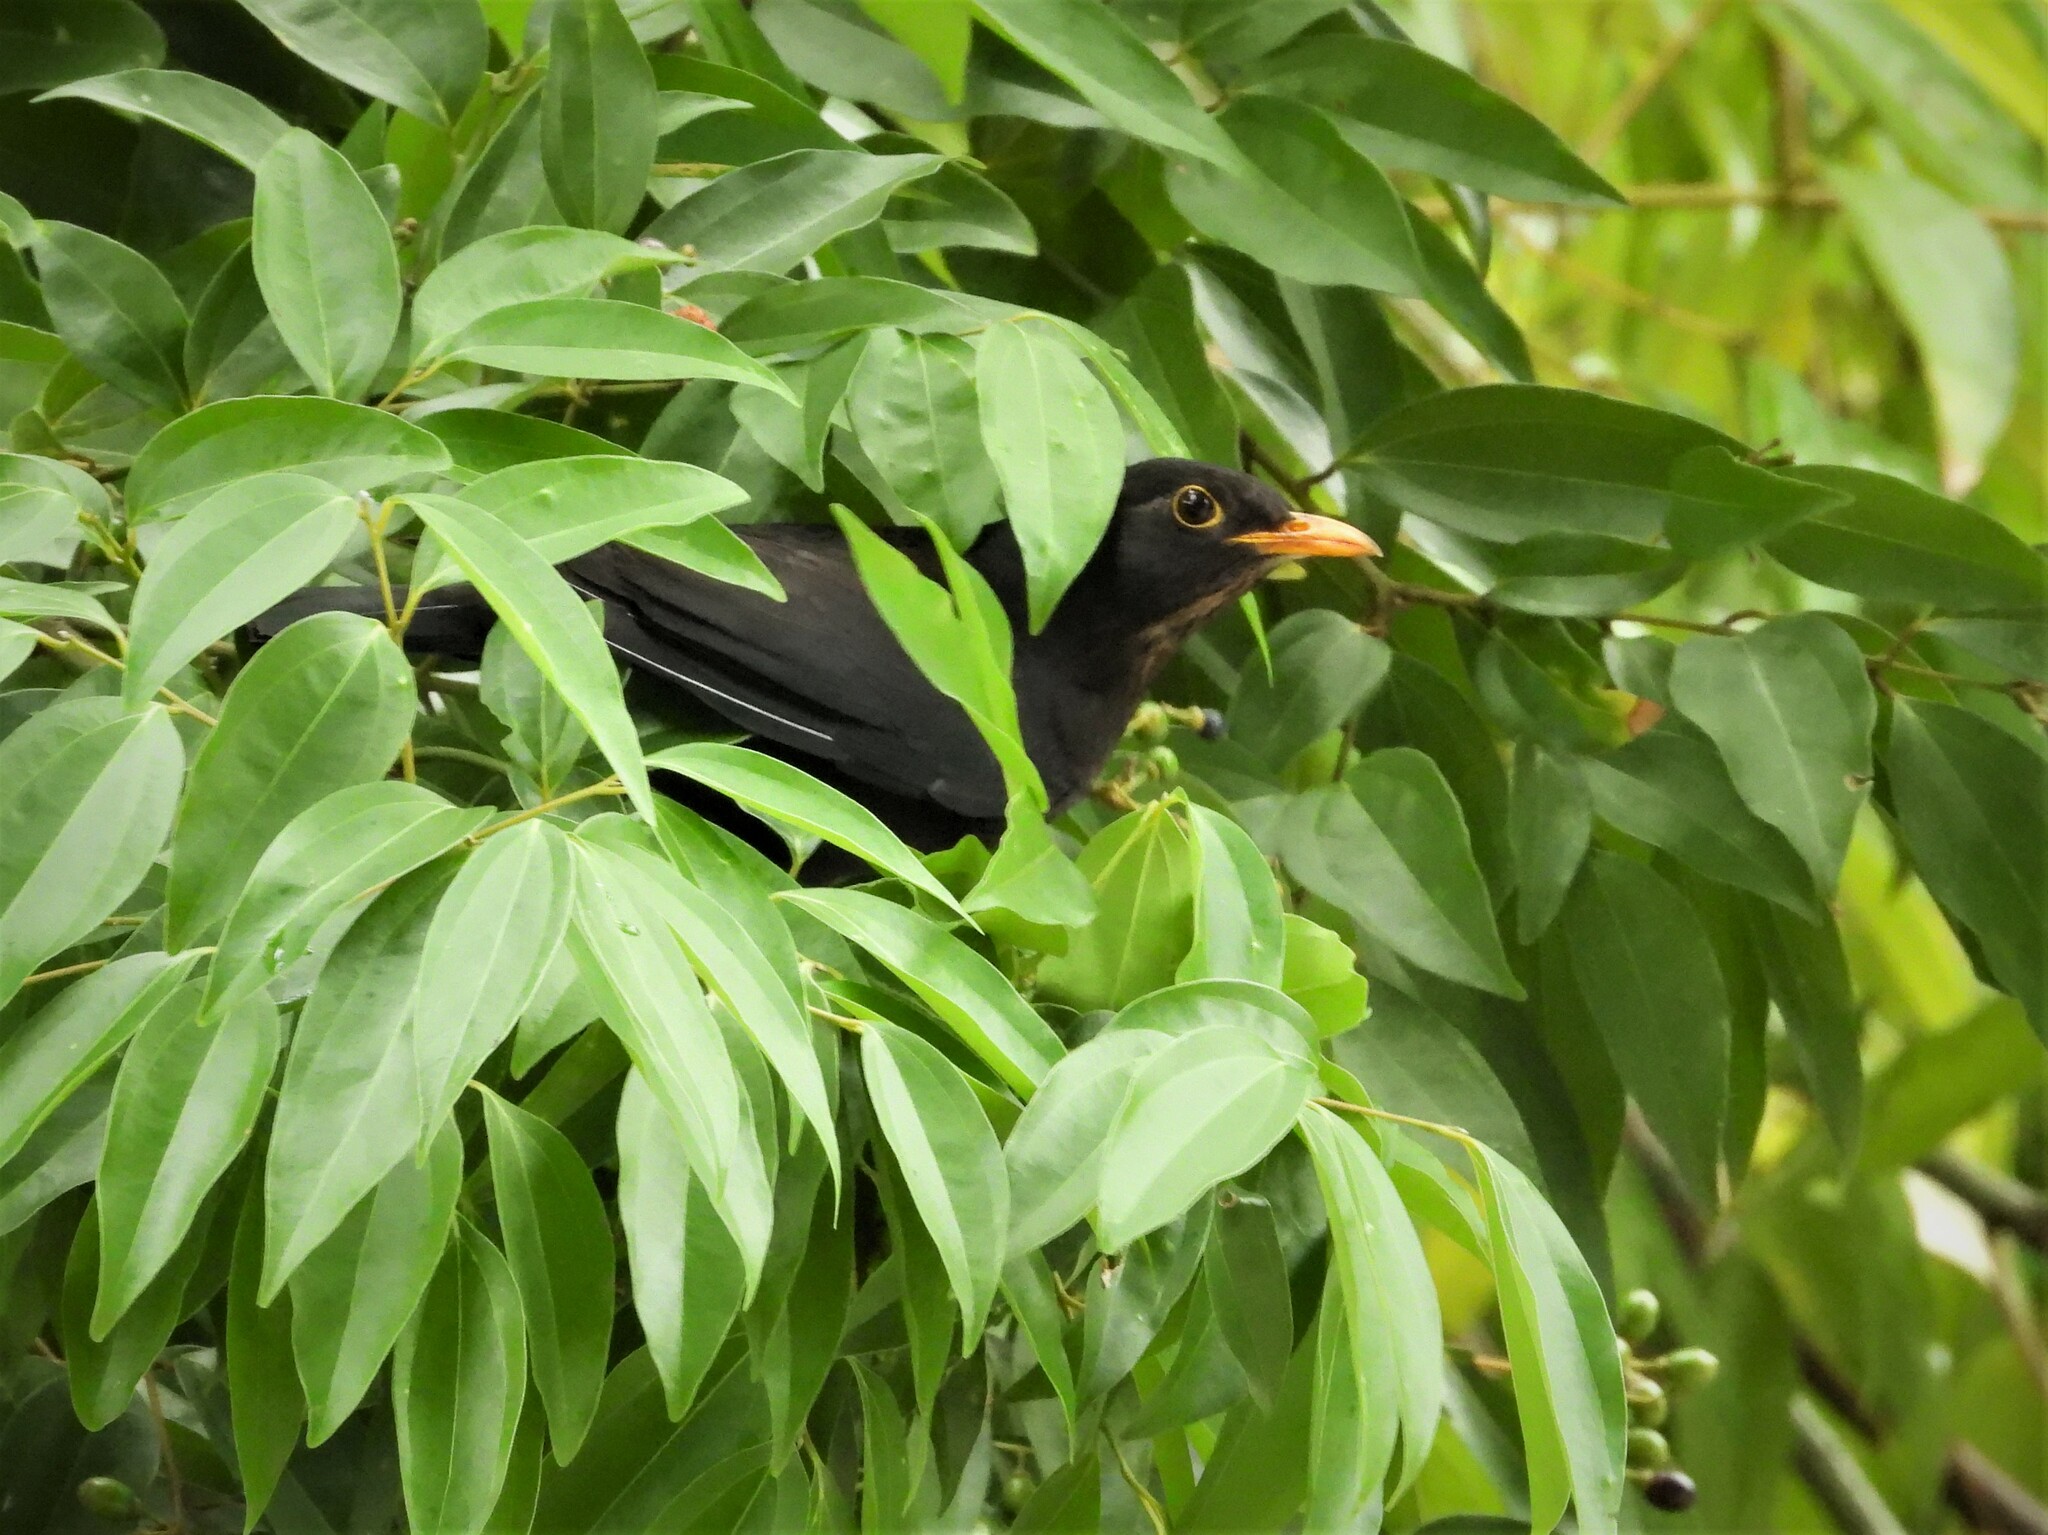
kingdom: Animalia
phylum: Chordata
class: Aves
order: Passeriformes
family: Turdidae
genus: Turdus
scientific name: Turdus mandarinus
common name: Chinese blackbird
